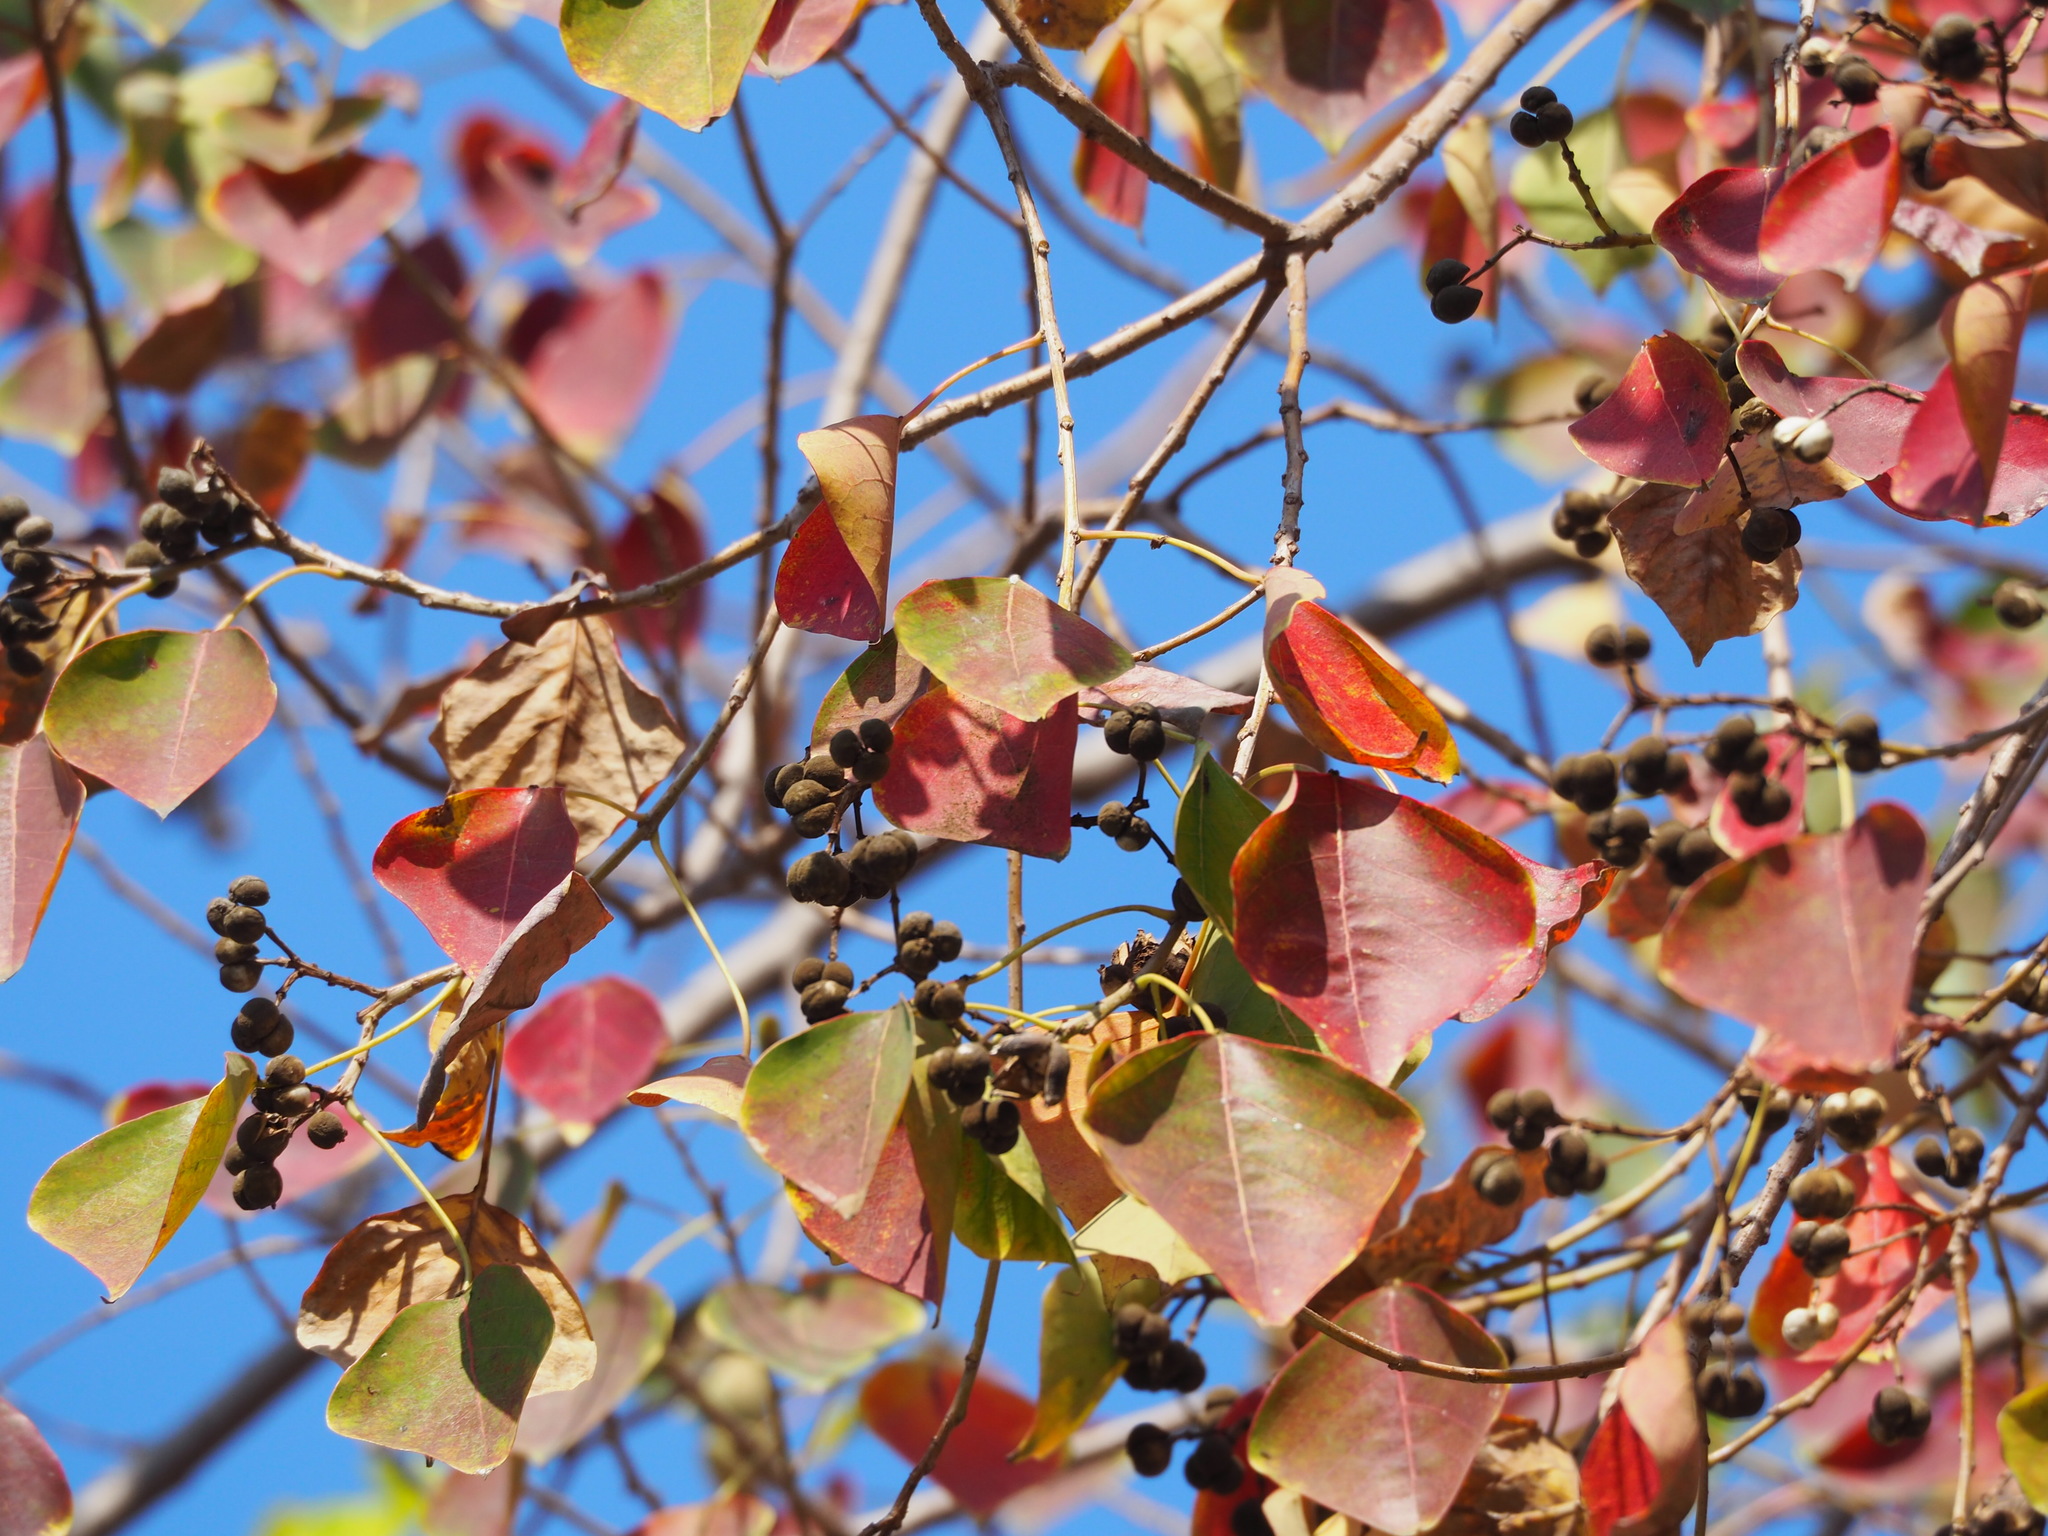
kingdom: Plantae
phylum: Tracheophyta
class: Magnoliopsida
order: Malpighiales
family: Euphorbiaceae
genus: Triadica
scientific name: Triadica sebifera
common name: Chinese tallow
